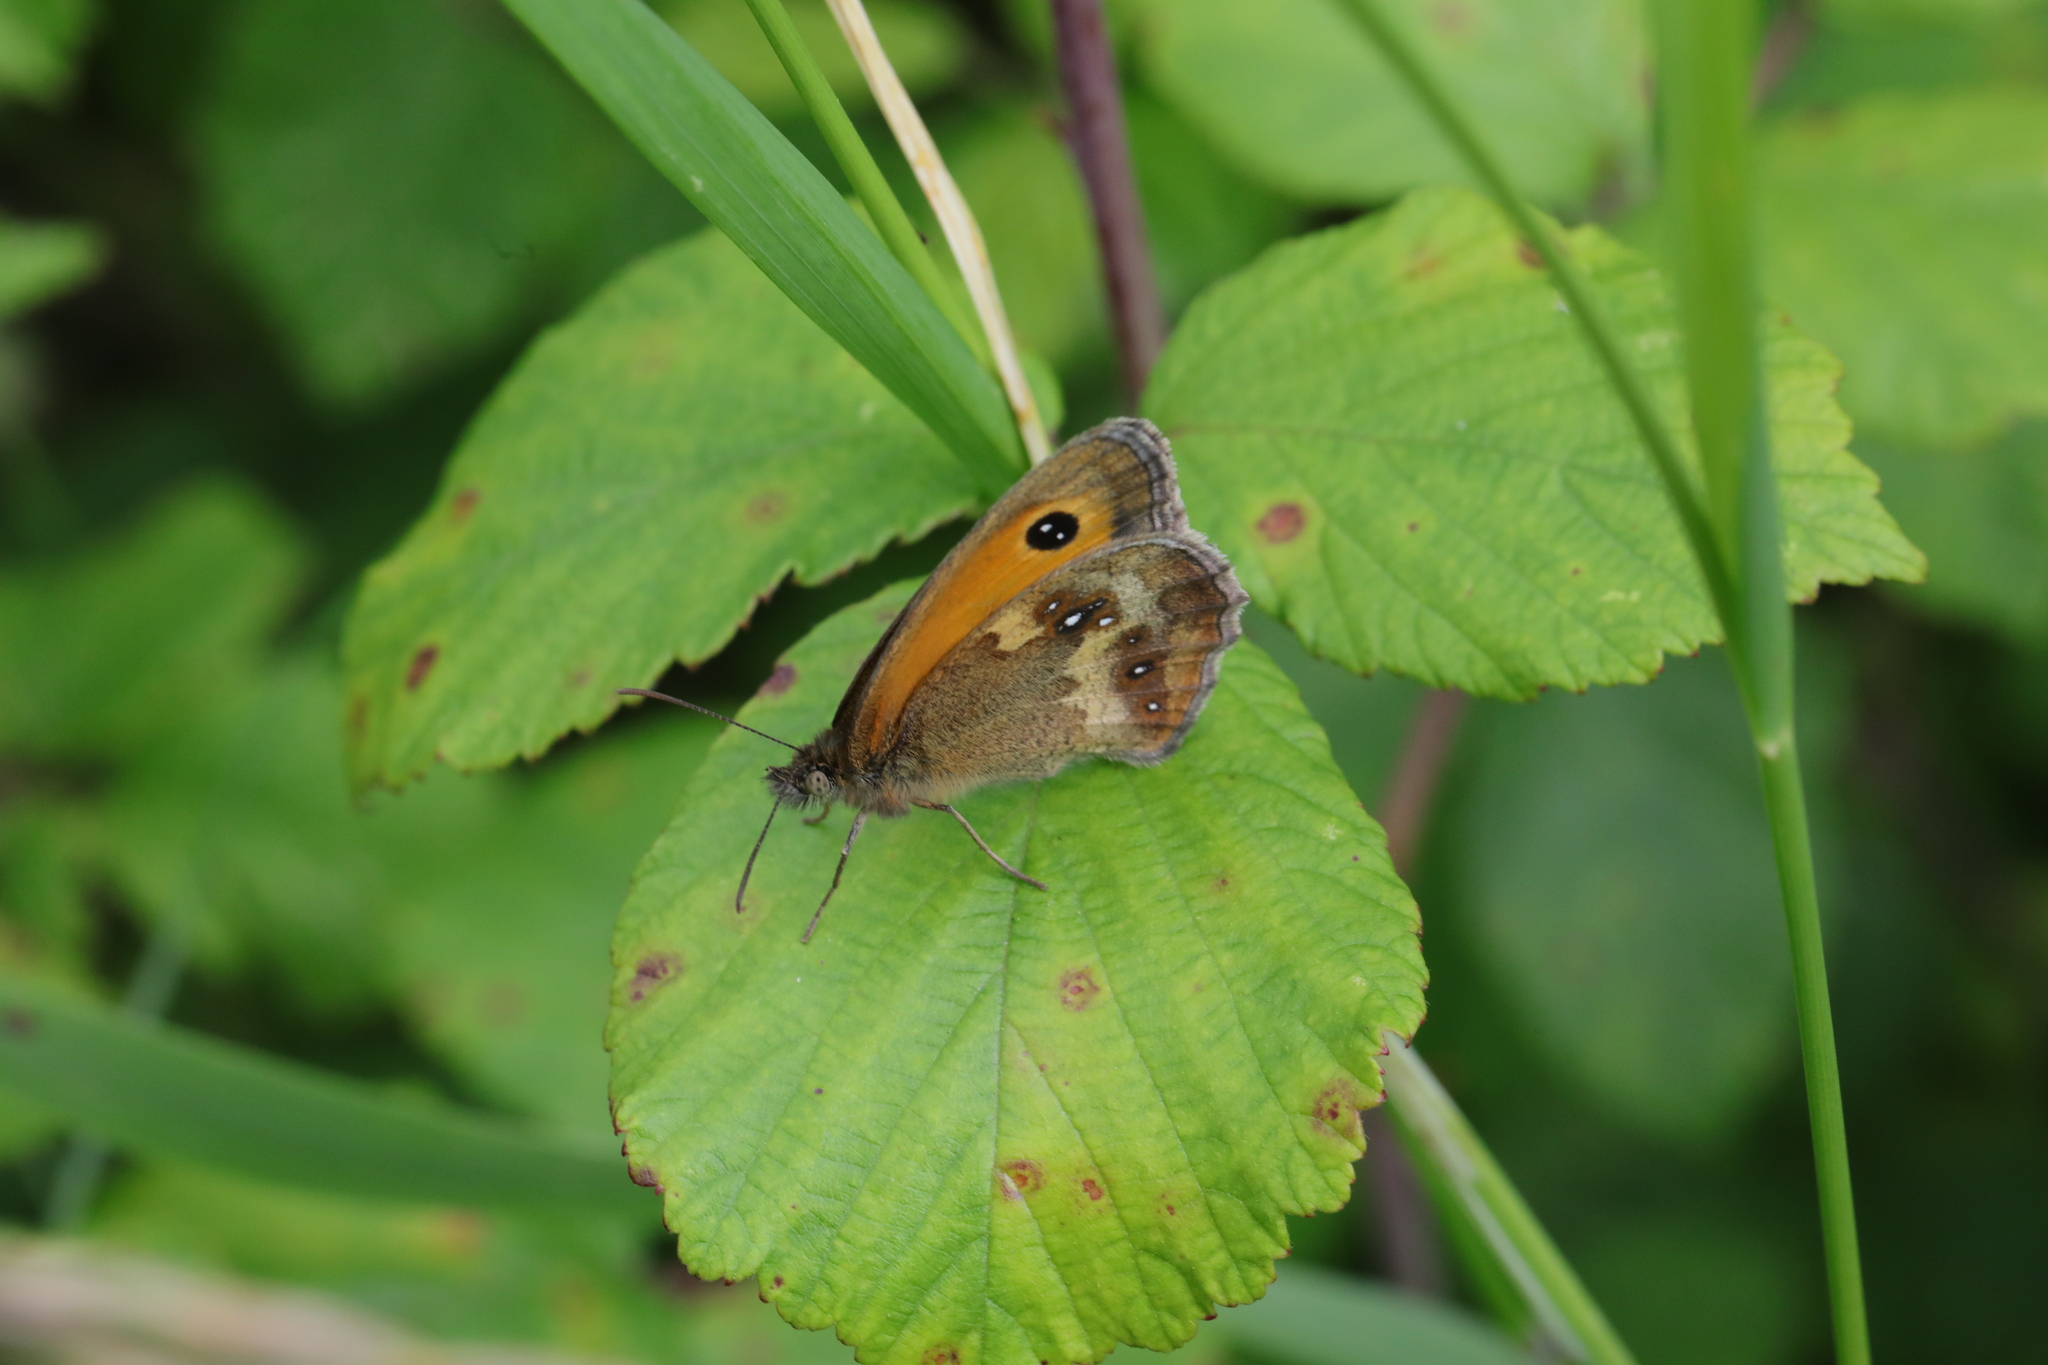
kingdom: Animalia
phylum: Arthropoda
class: Insecta
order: Lepidoptera
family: Nymphalidae
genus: Pyronia
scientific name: Pyronia tithonus
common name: Gatekeeper
